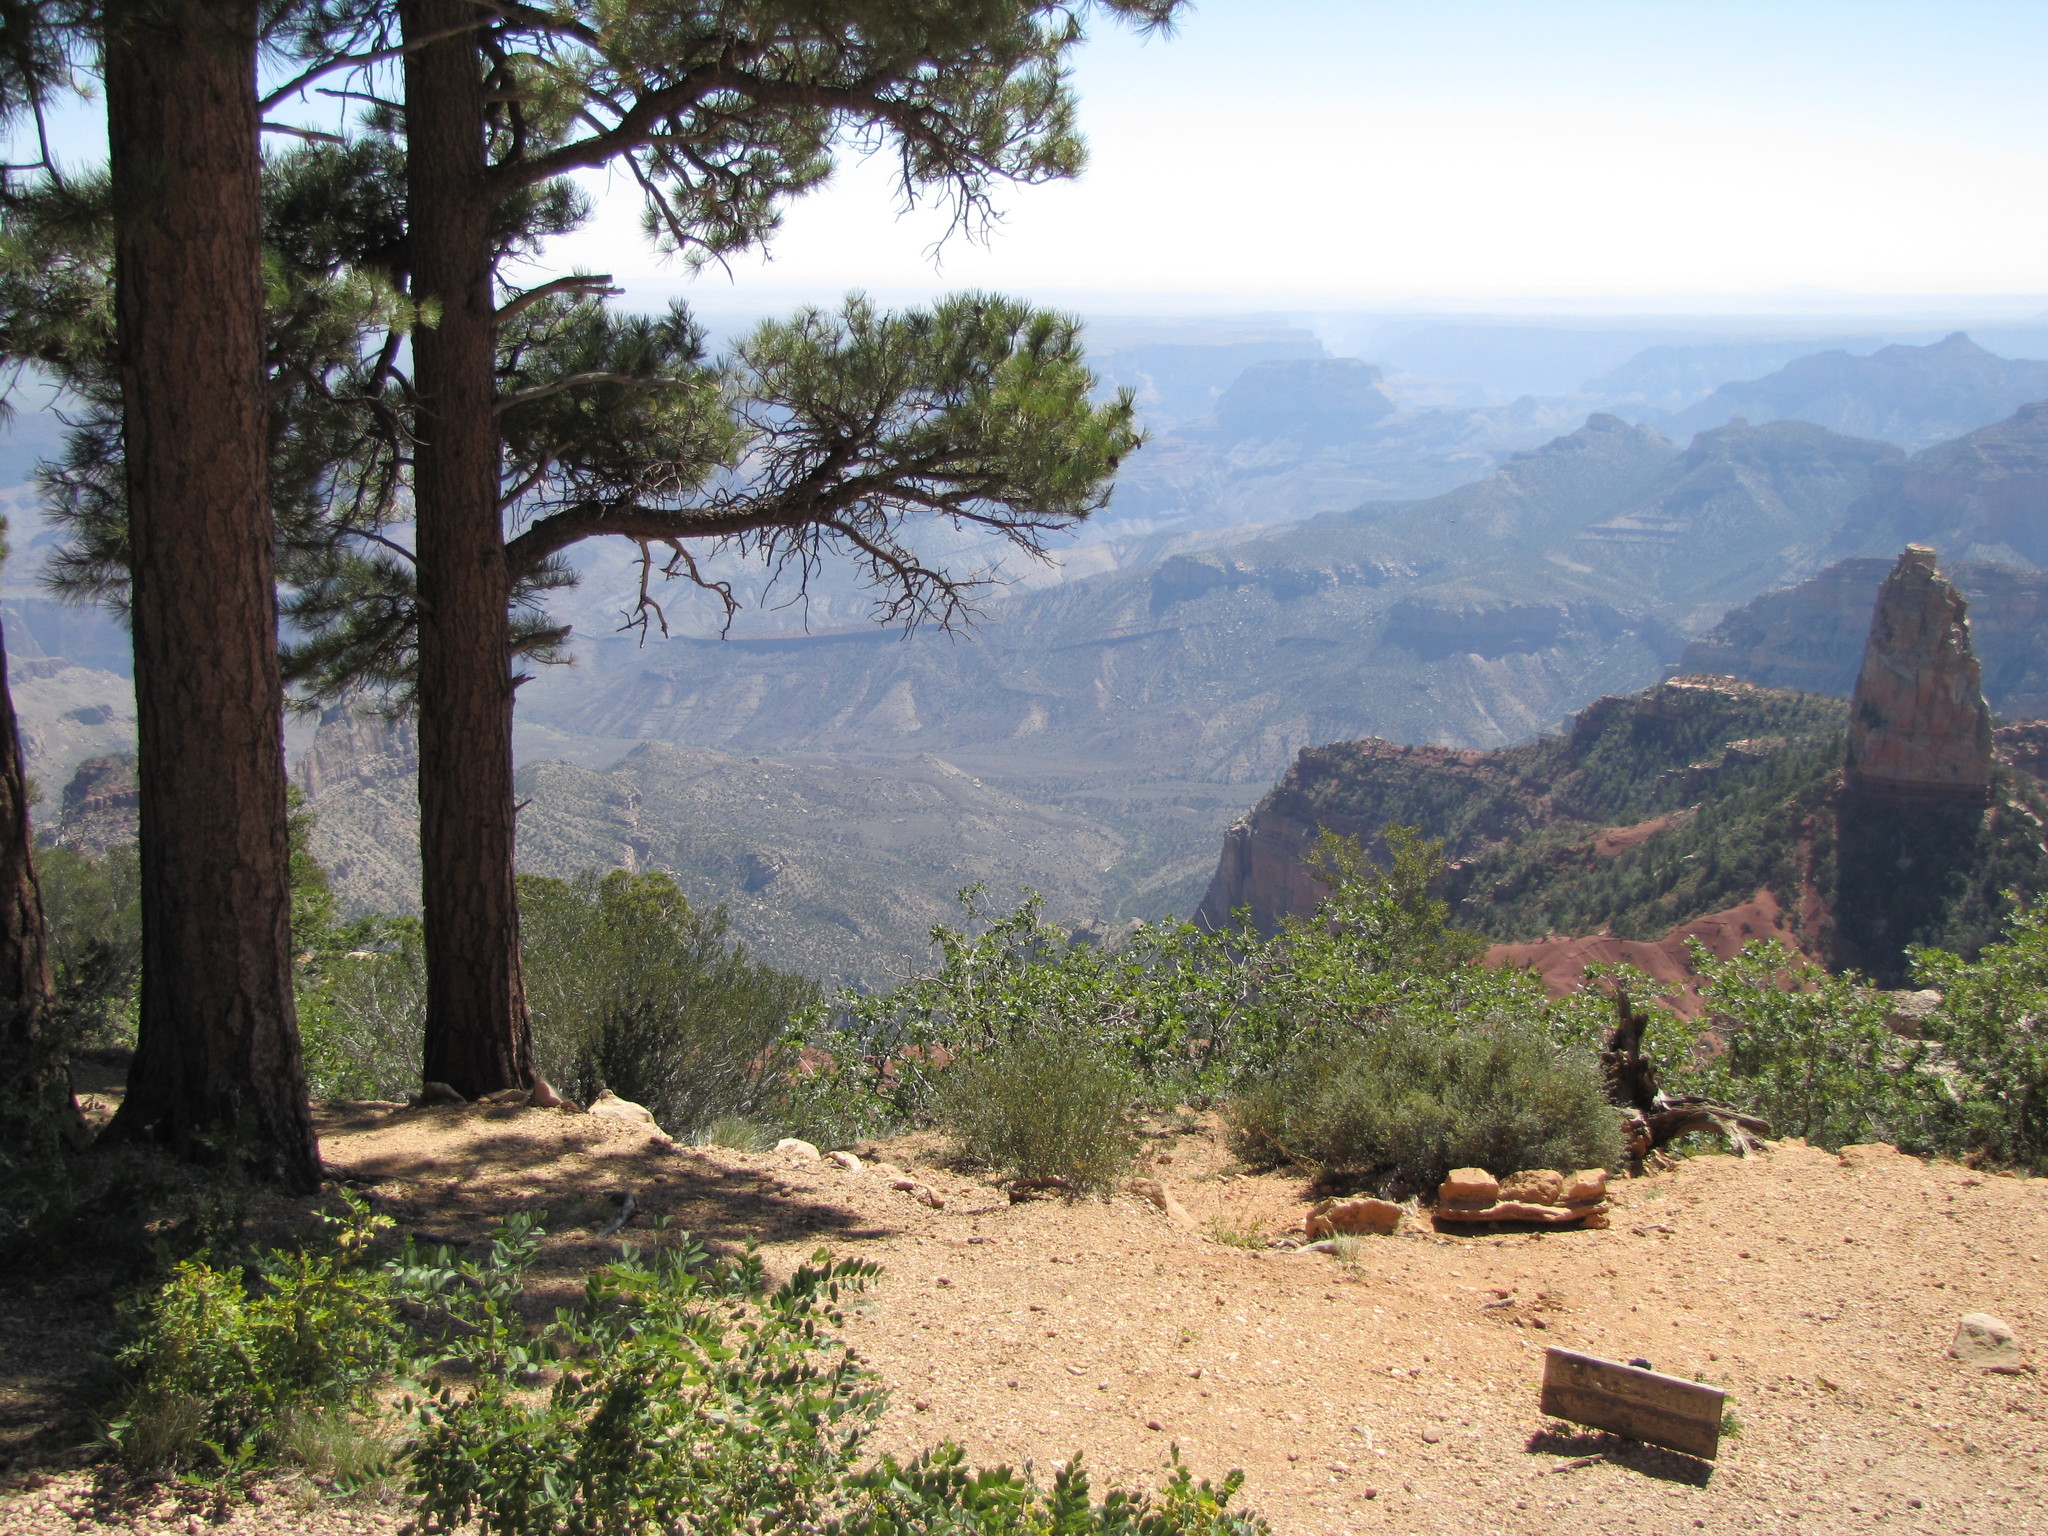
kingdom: Plantae
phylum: Tracheophyta
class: Pinopsida
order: Pinales
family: Pinaceae
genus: Pinus
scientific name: Pinus ponderosa
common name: Western yellow-pine
